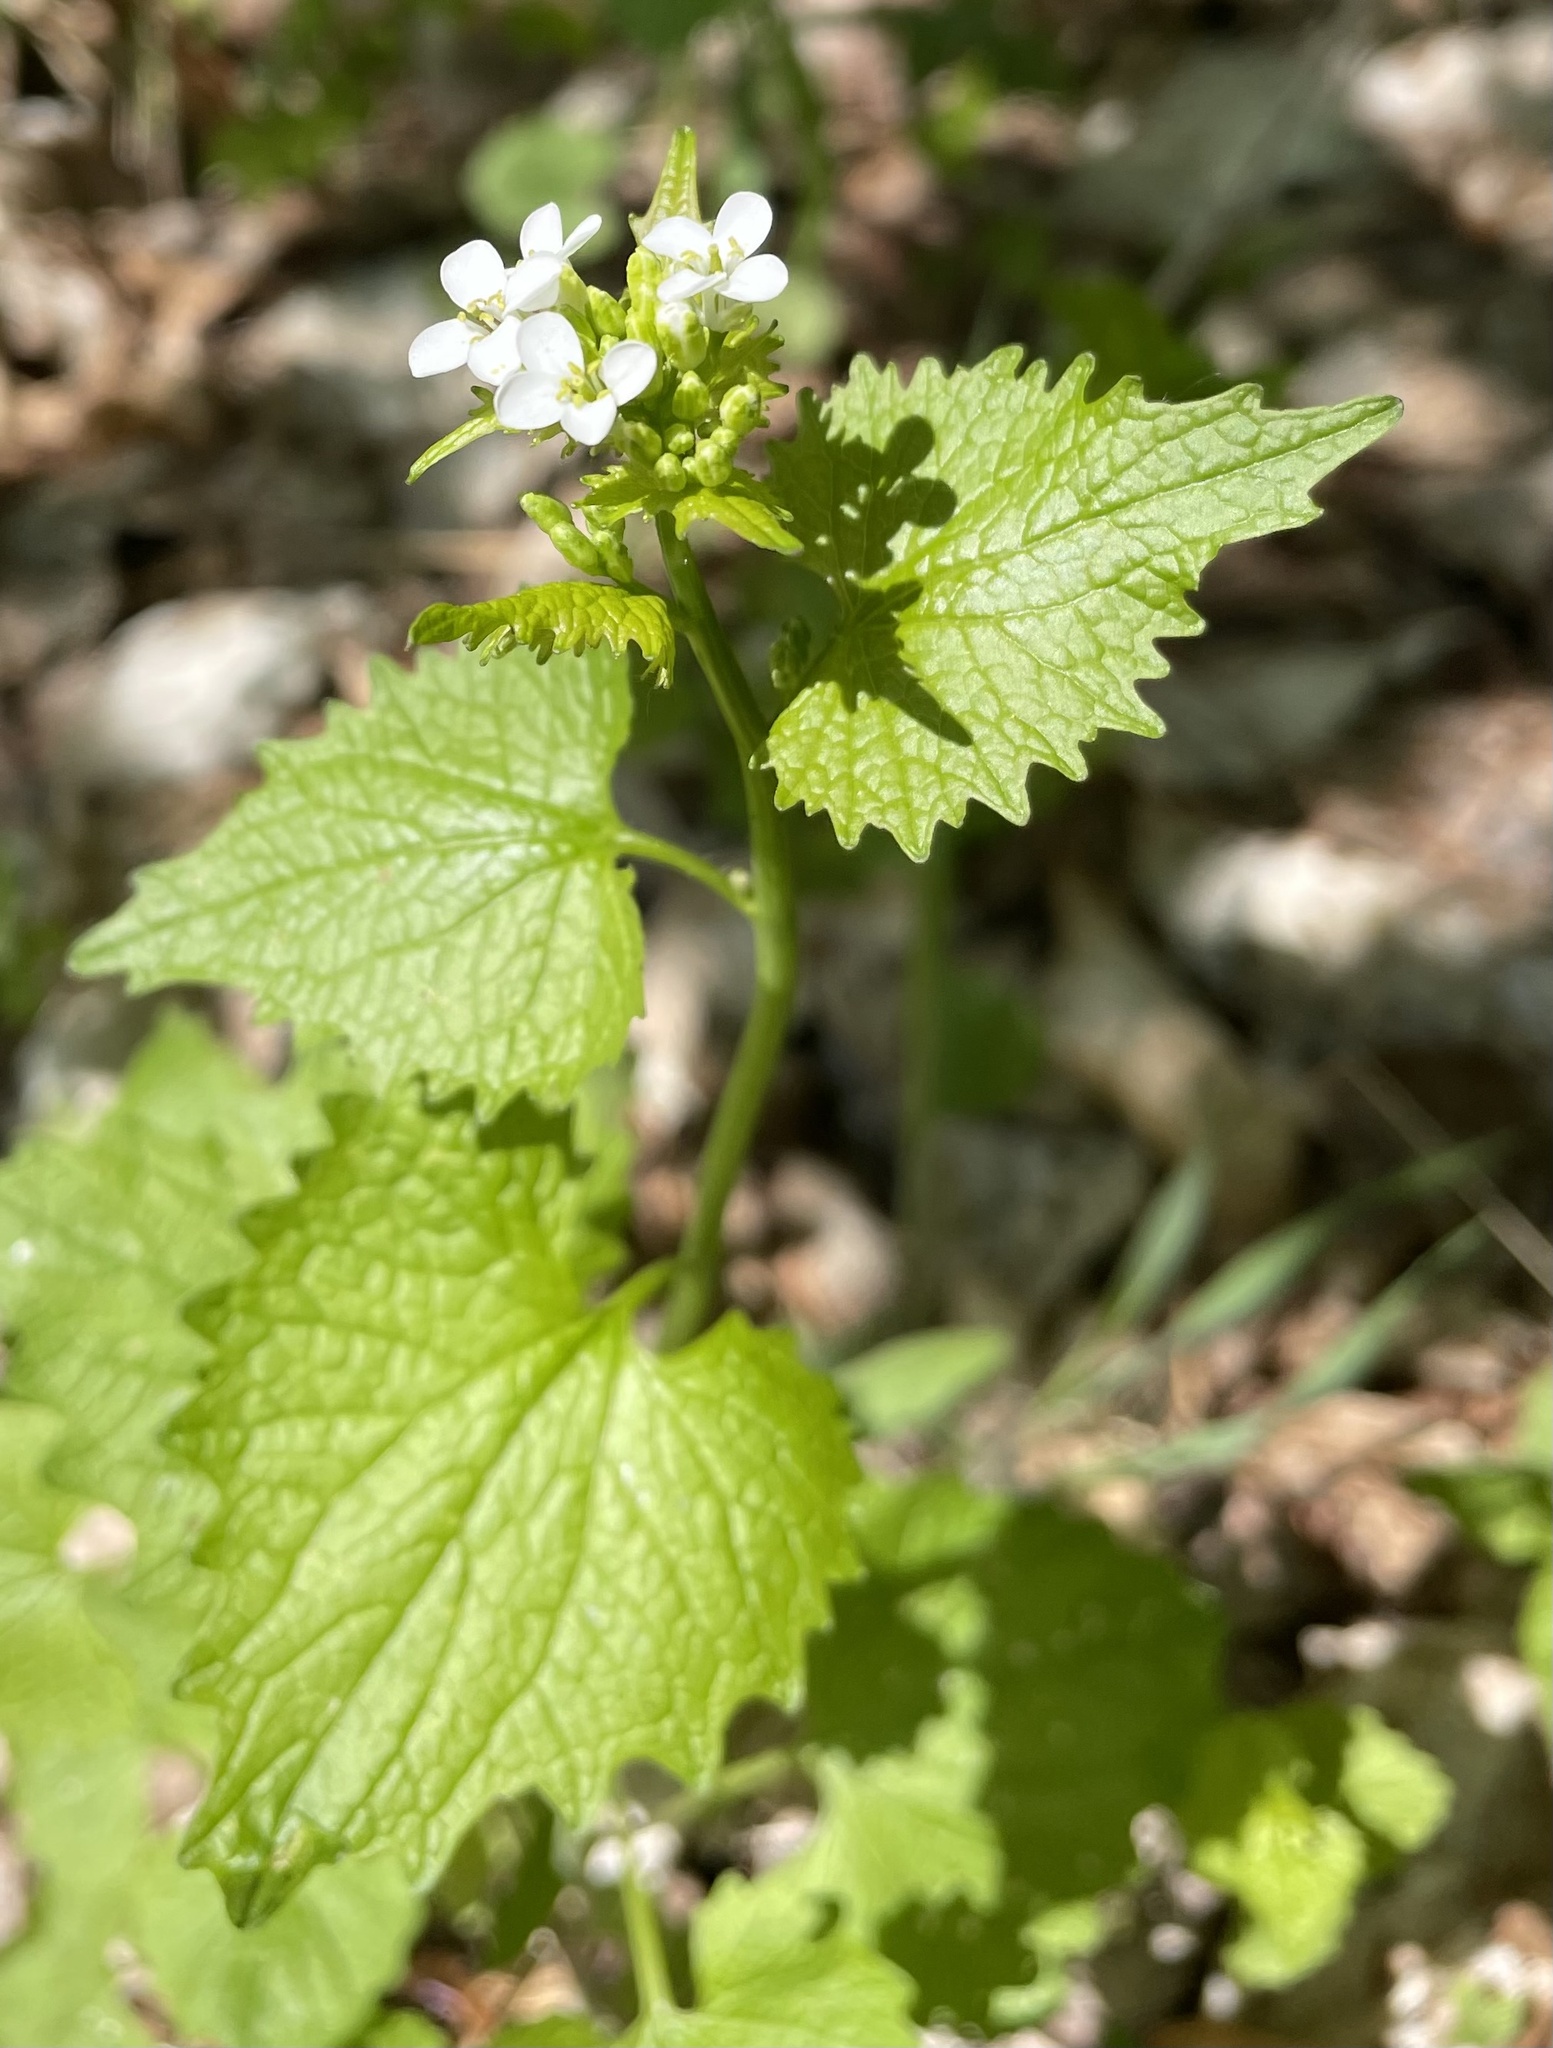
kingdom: Plantae
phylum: Tracheophyta
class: Magnoliopsida
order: Brassicales
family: Brassicaceae
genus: Alliaria
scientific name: Alliaria petiolata
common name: Garlic mustard
